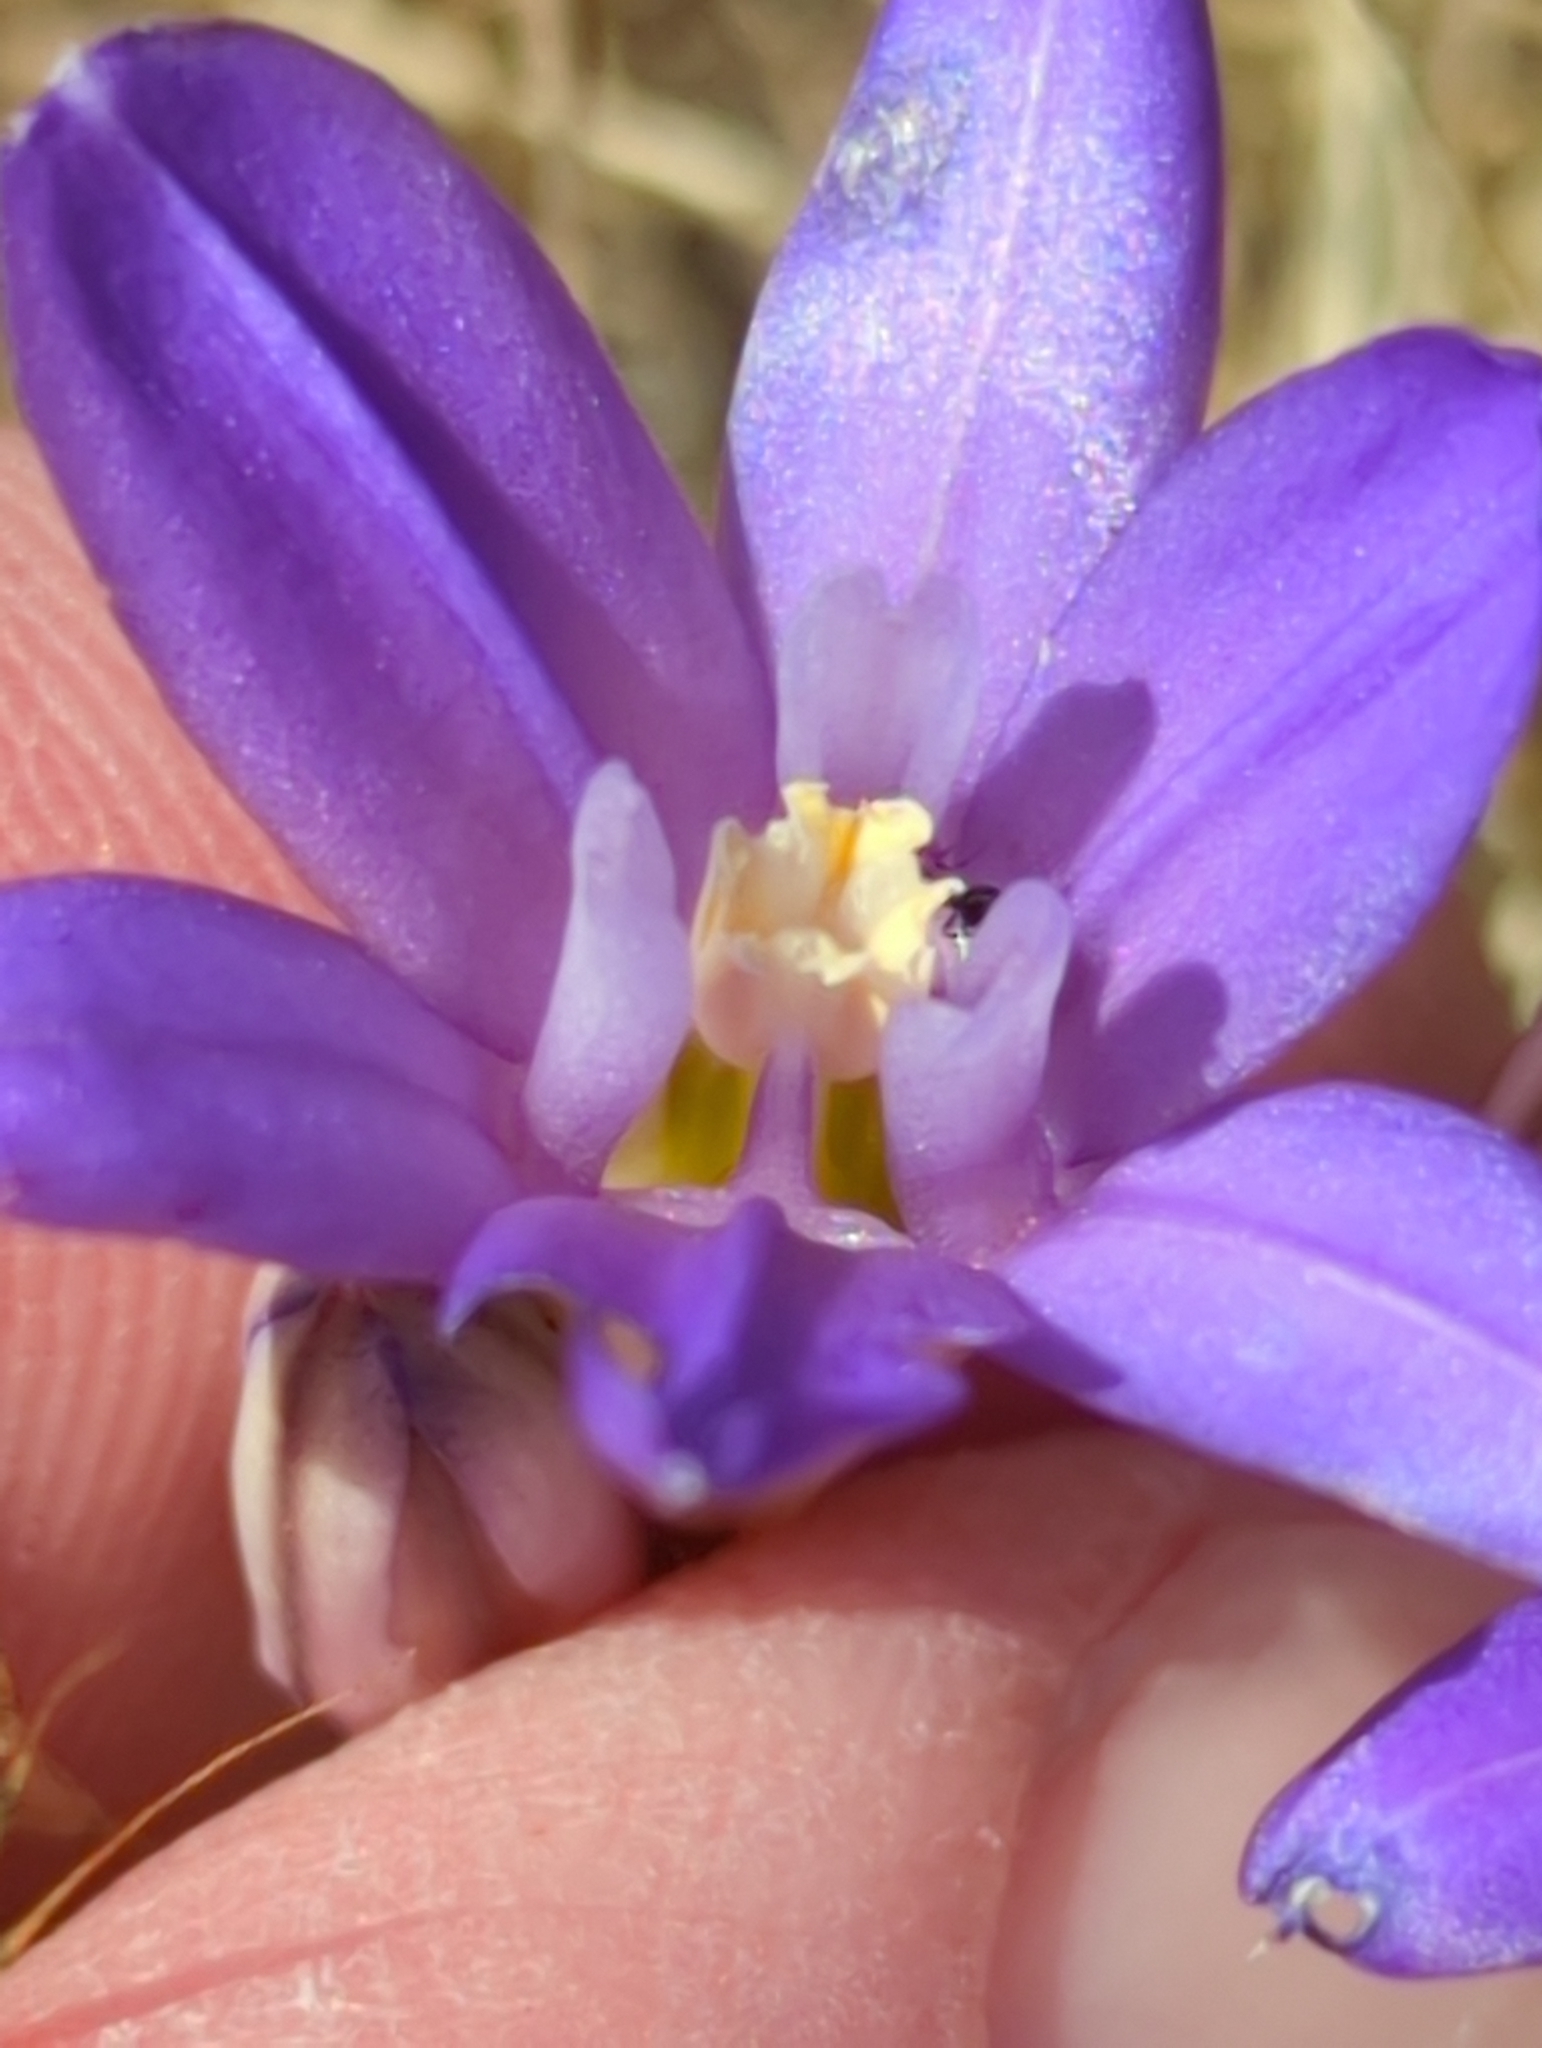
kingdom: Plantae
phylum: Tracheophyta
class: Liliopsida
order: Asparagales
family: Asparagaceae
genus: Brodiaea
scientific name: Brodiaea terrestris
